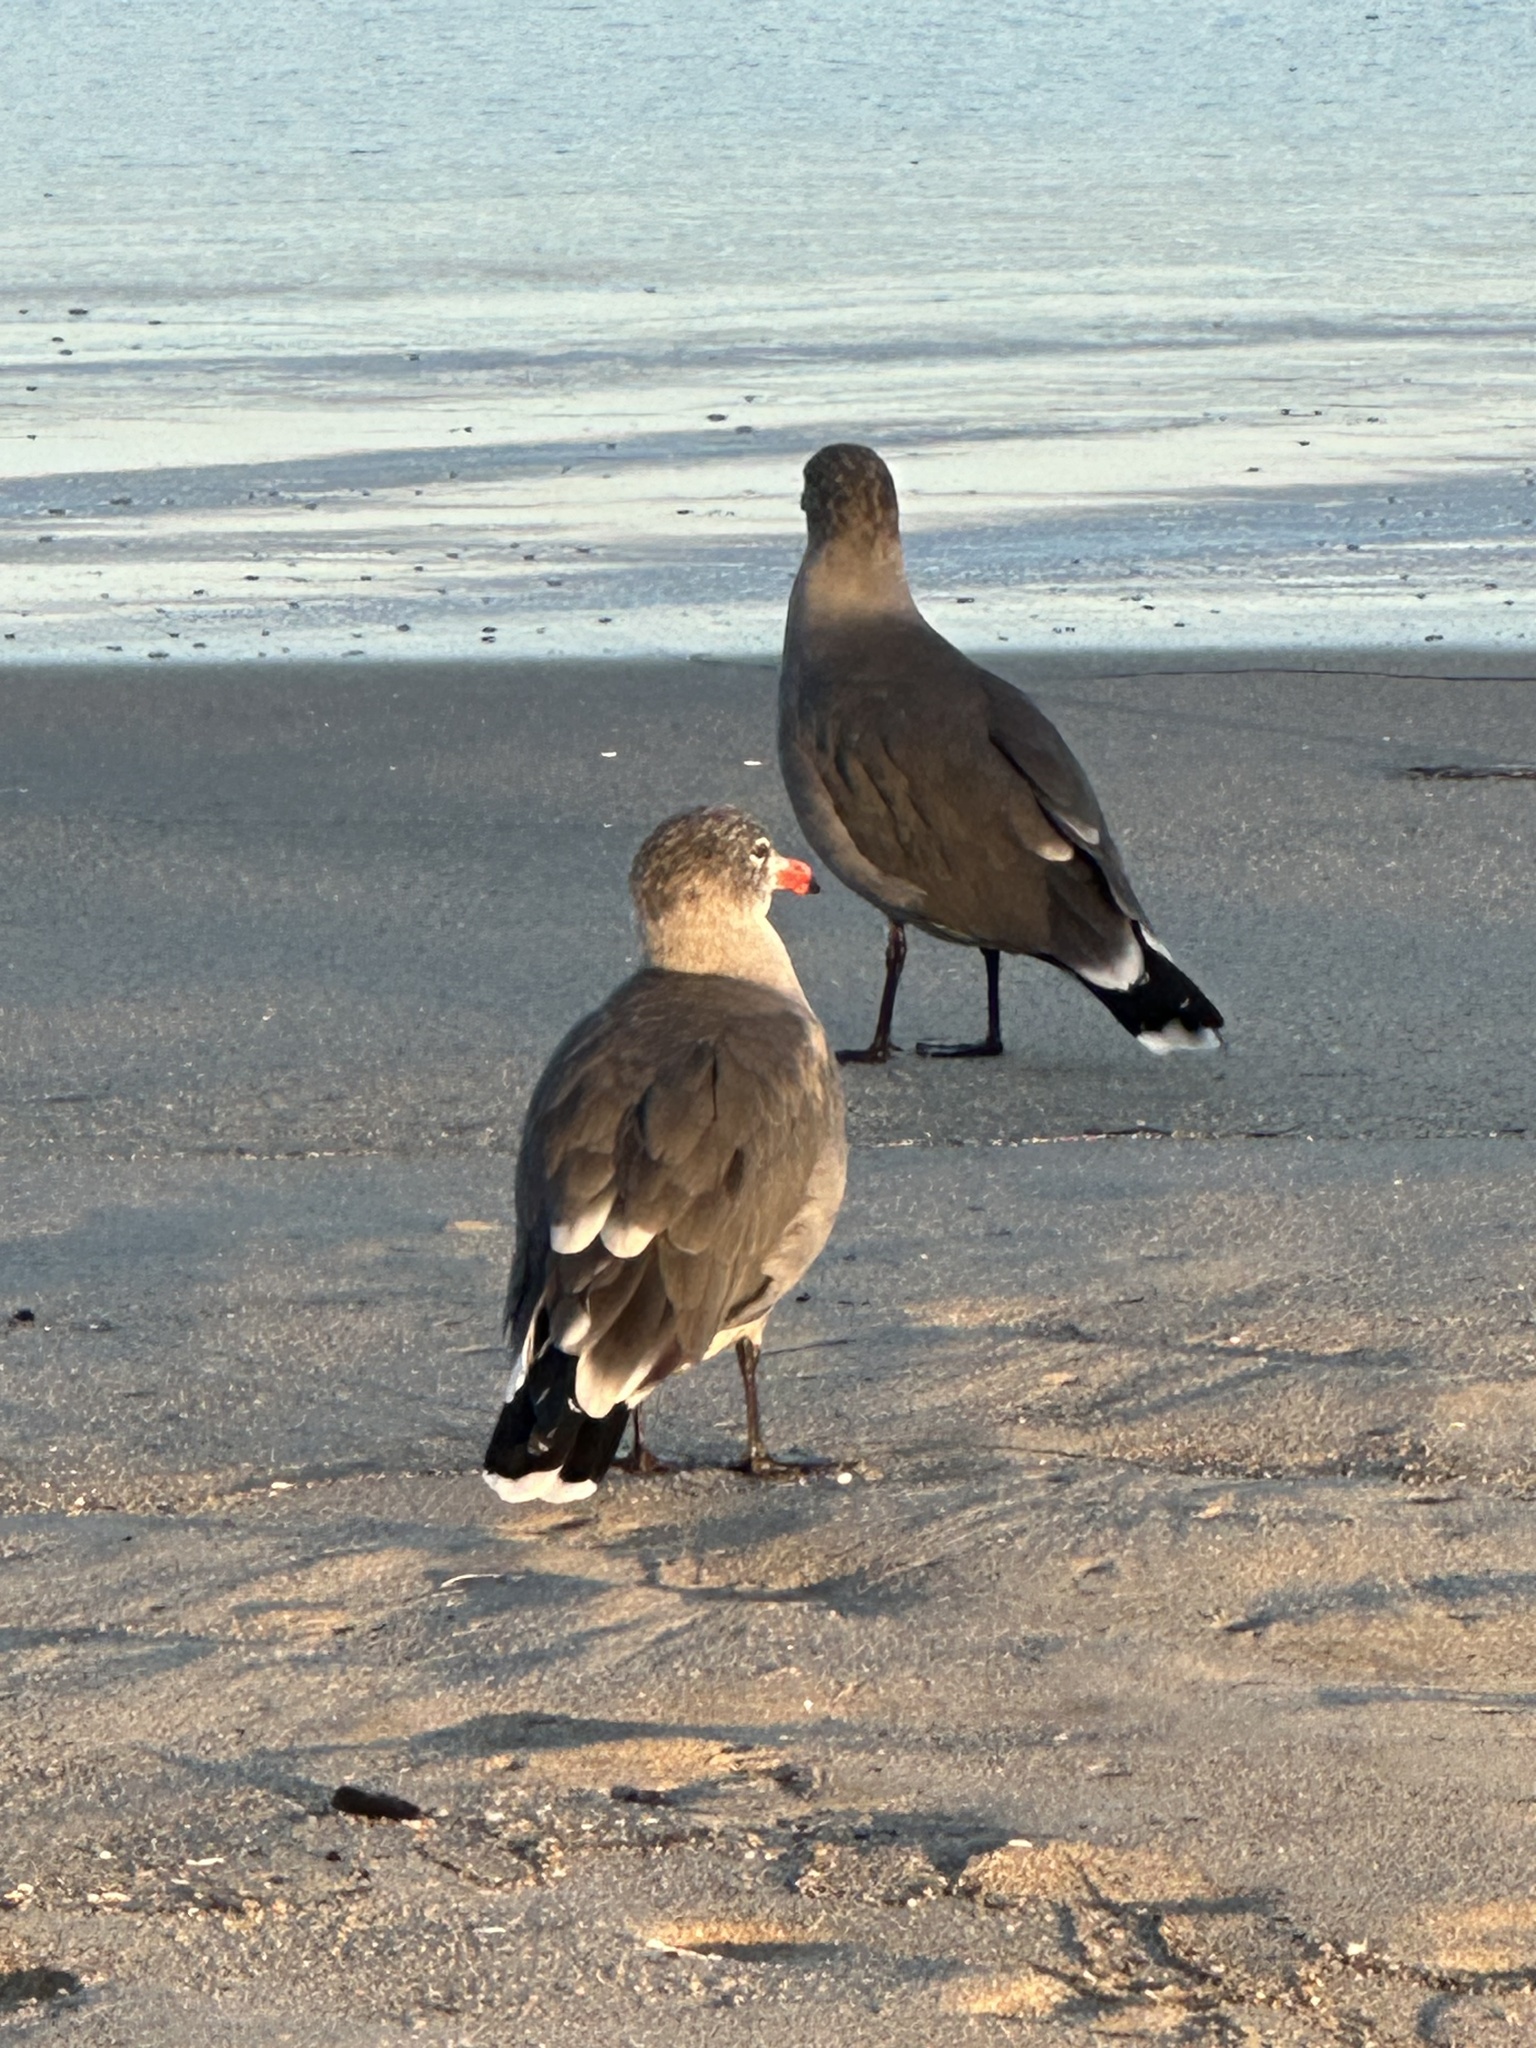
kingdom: Animalia
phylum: Chordata
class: Aves
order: Charadriiformes
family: Laridae
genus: Larus
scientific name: Larus heermanni
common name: Heermann's gull
